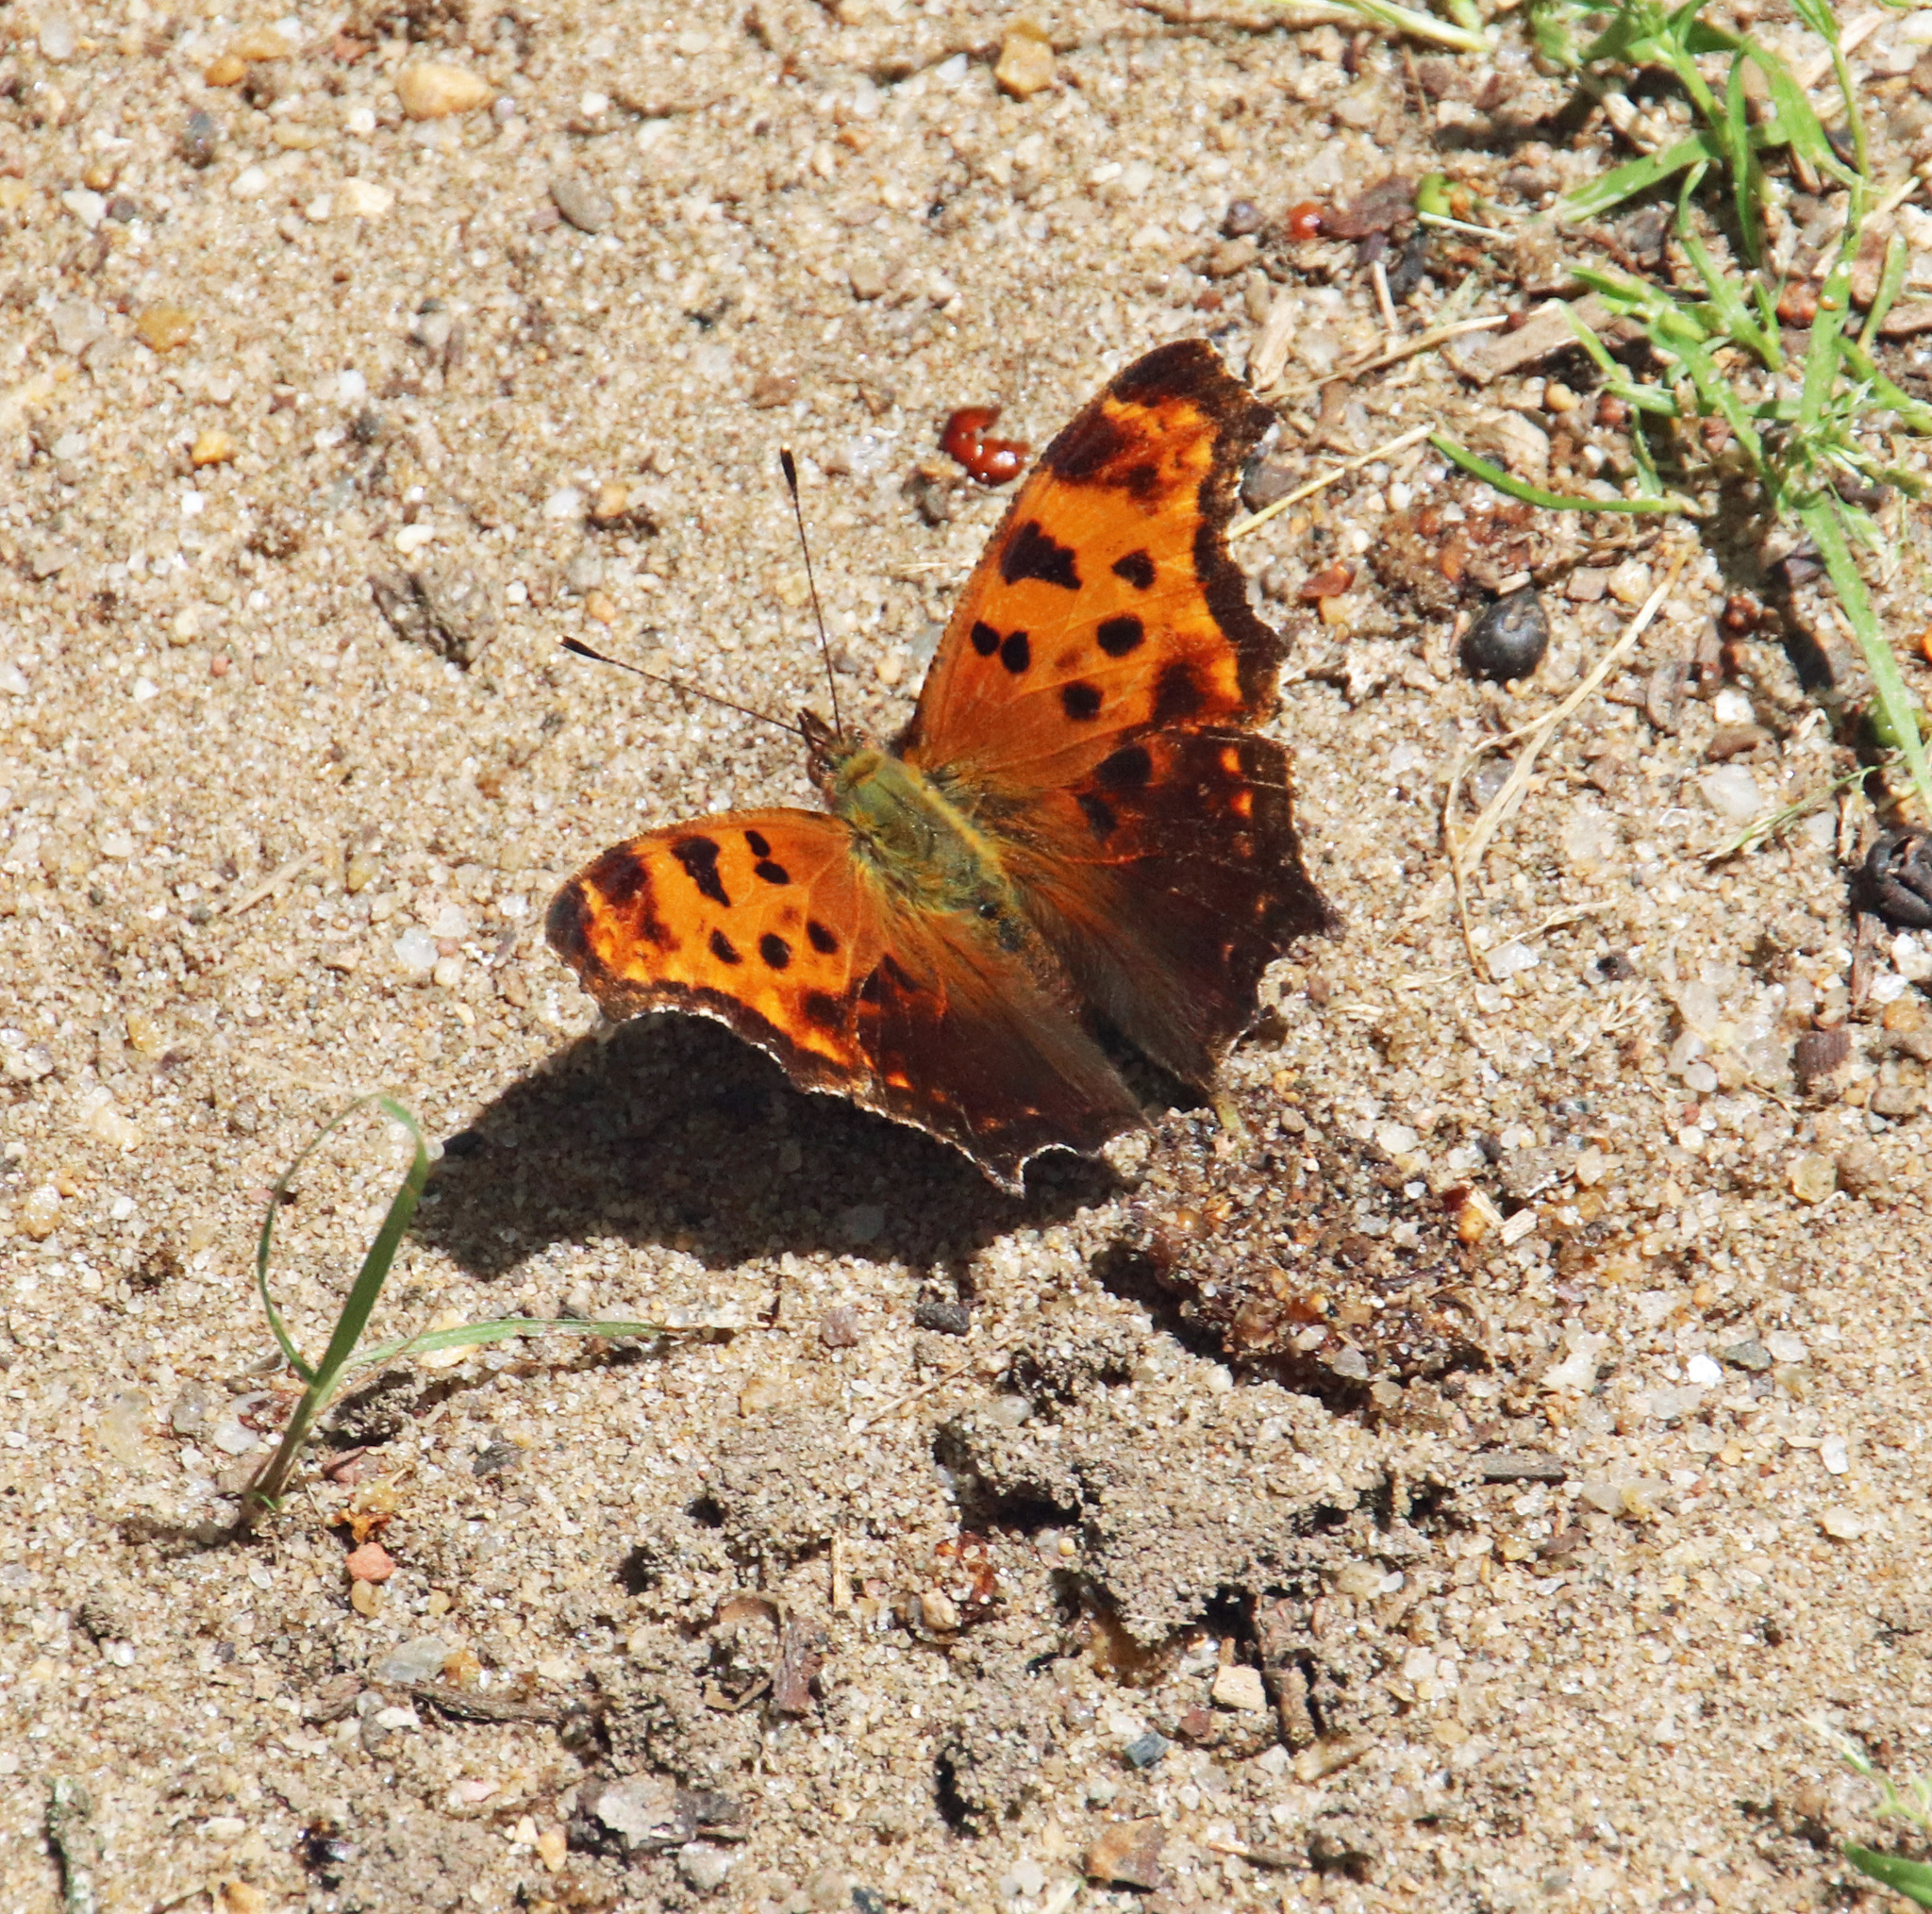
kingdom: Animalia
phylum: Arthropoda
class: Insecta
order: Lepidoptera
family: Nymphalidae
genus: Polygonia
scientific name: Polygonia comma
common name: Eastern comma
